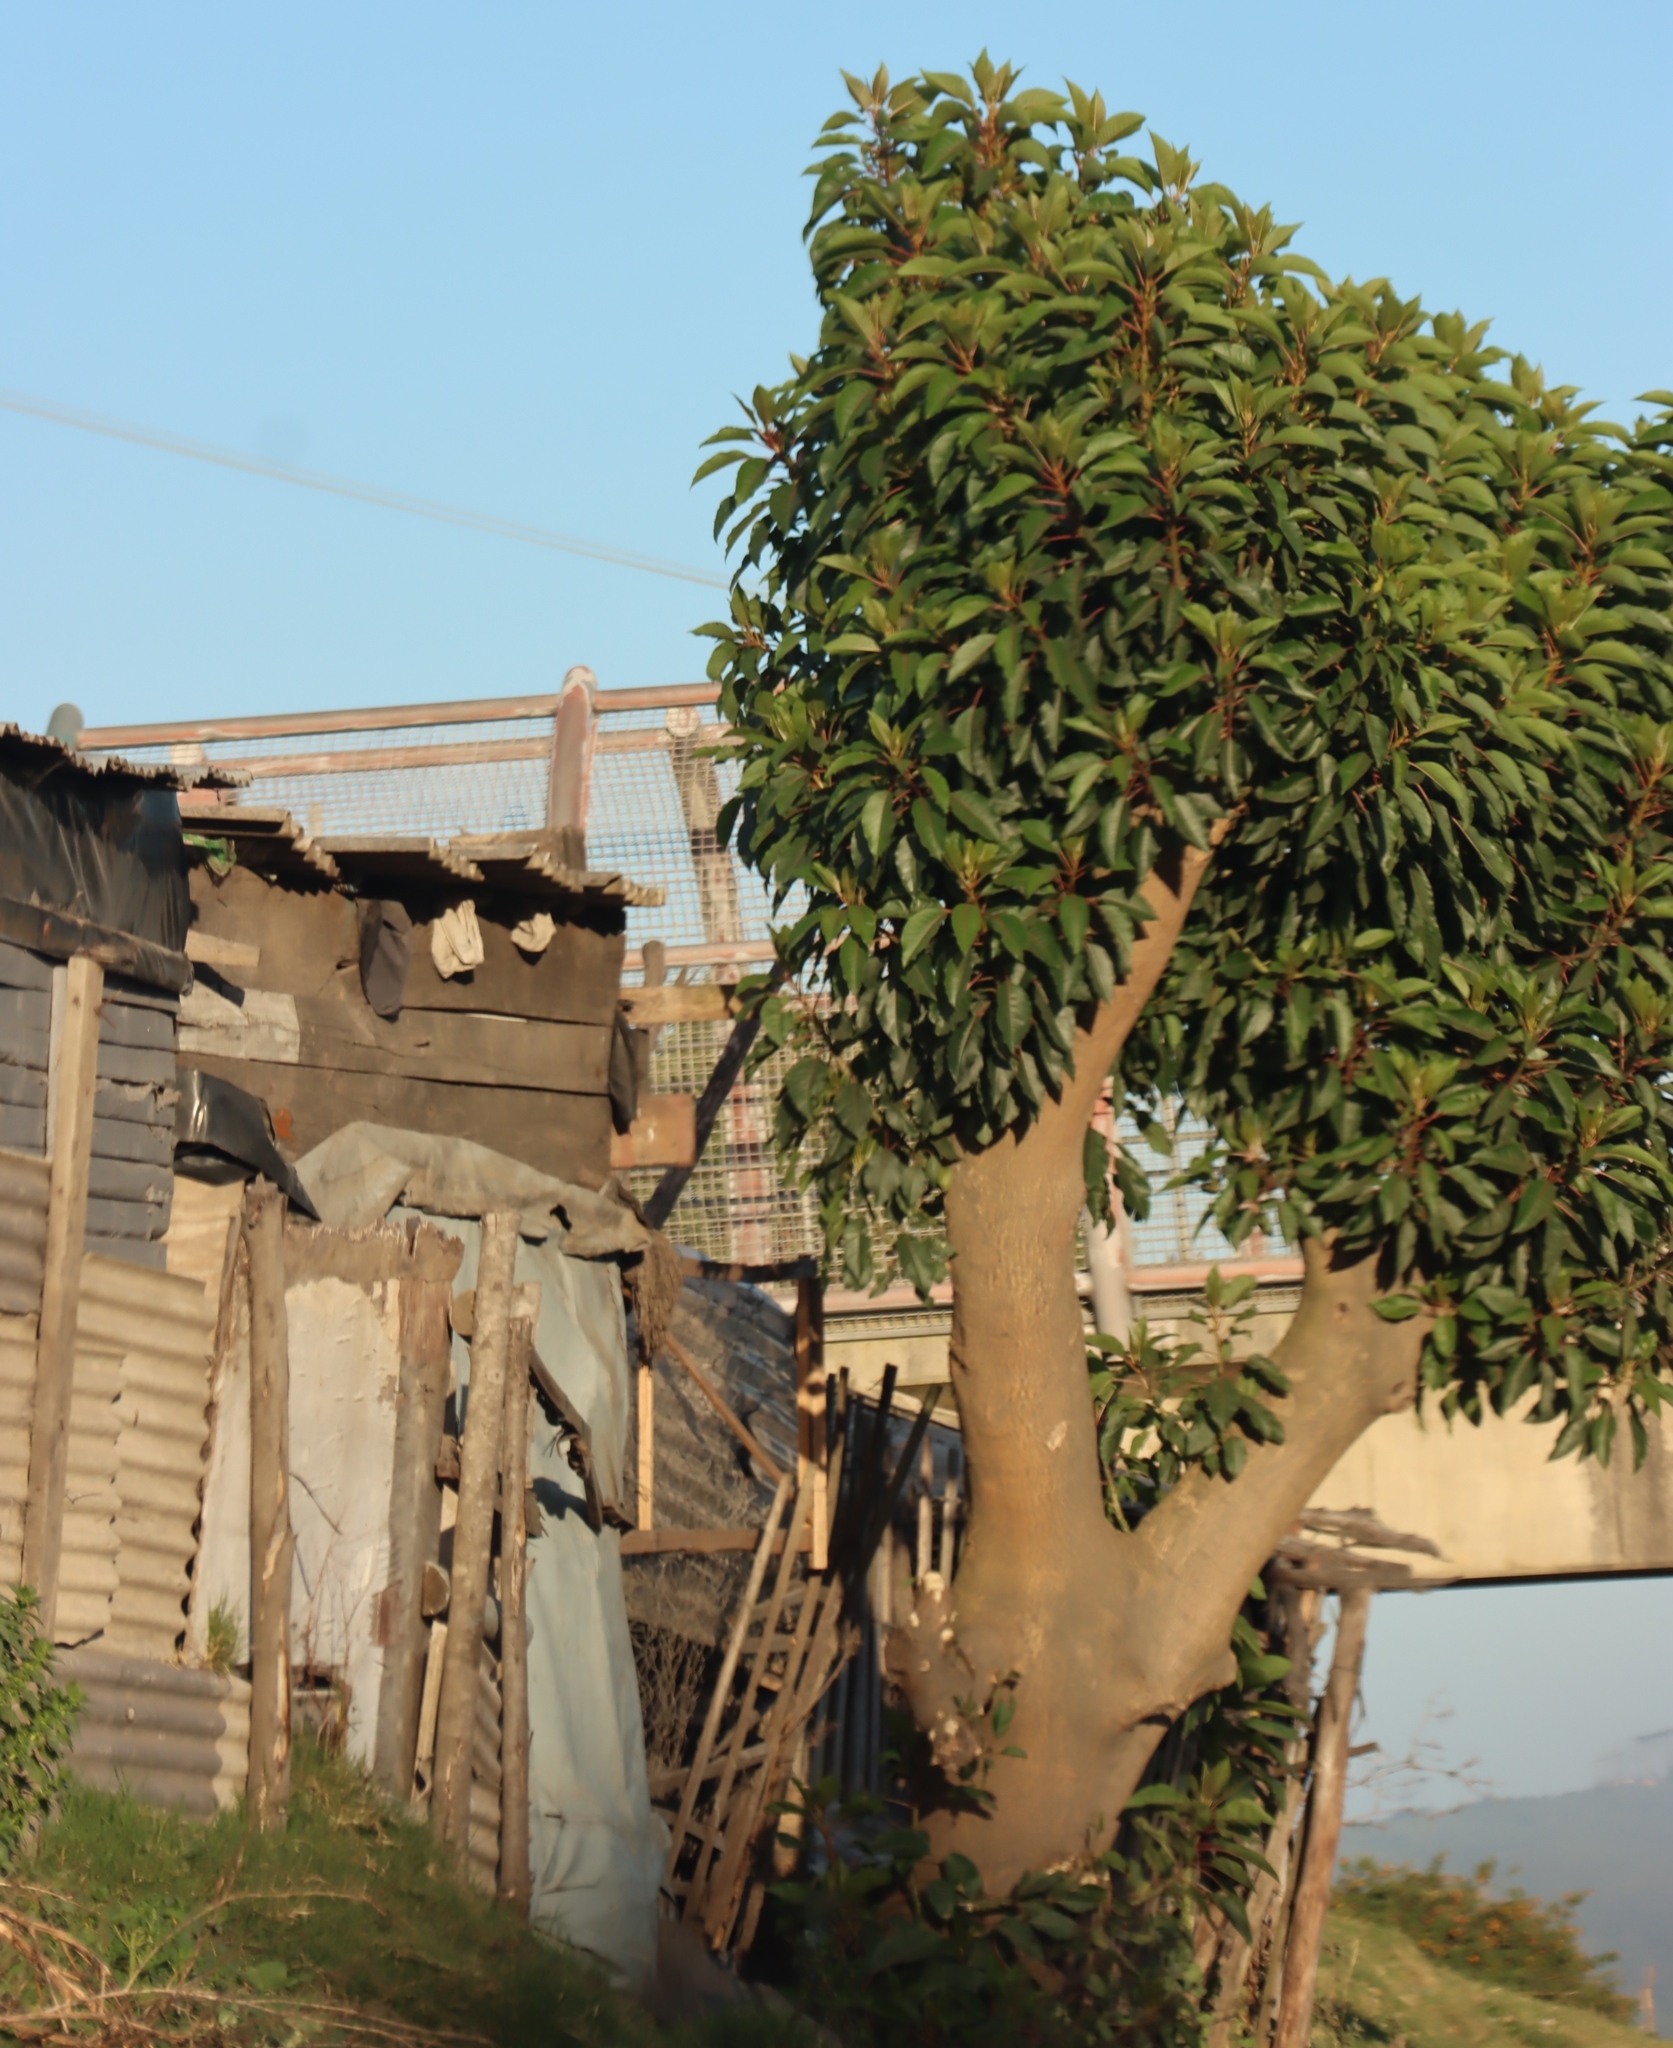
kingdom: Plantae
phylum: Tracheophyta
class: Magnoliopsida
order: Caryophyllales
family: Phytolaccaceae
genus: Phytolacca
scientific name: Phytolacca dioica
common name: Pokeweed
